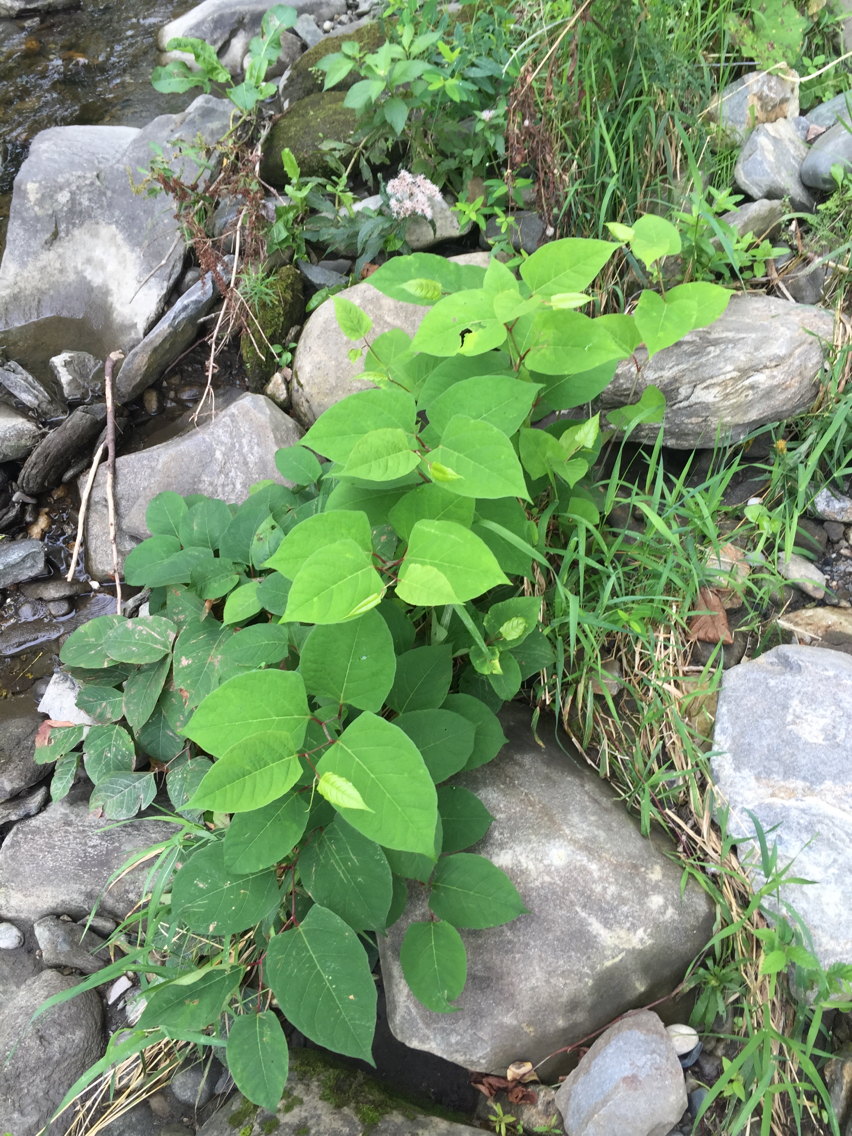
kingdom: Plantae
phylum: Tracheophyta
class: Magnoliopsida
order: Caryophyllales
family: Polygonaceae
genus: Reynoutria
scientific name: Reynoutria japonica
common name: Japanese knotweed
